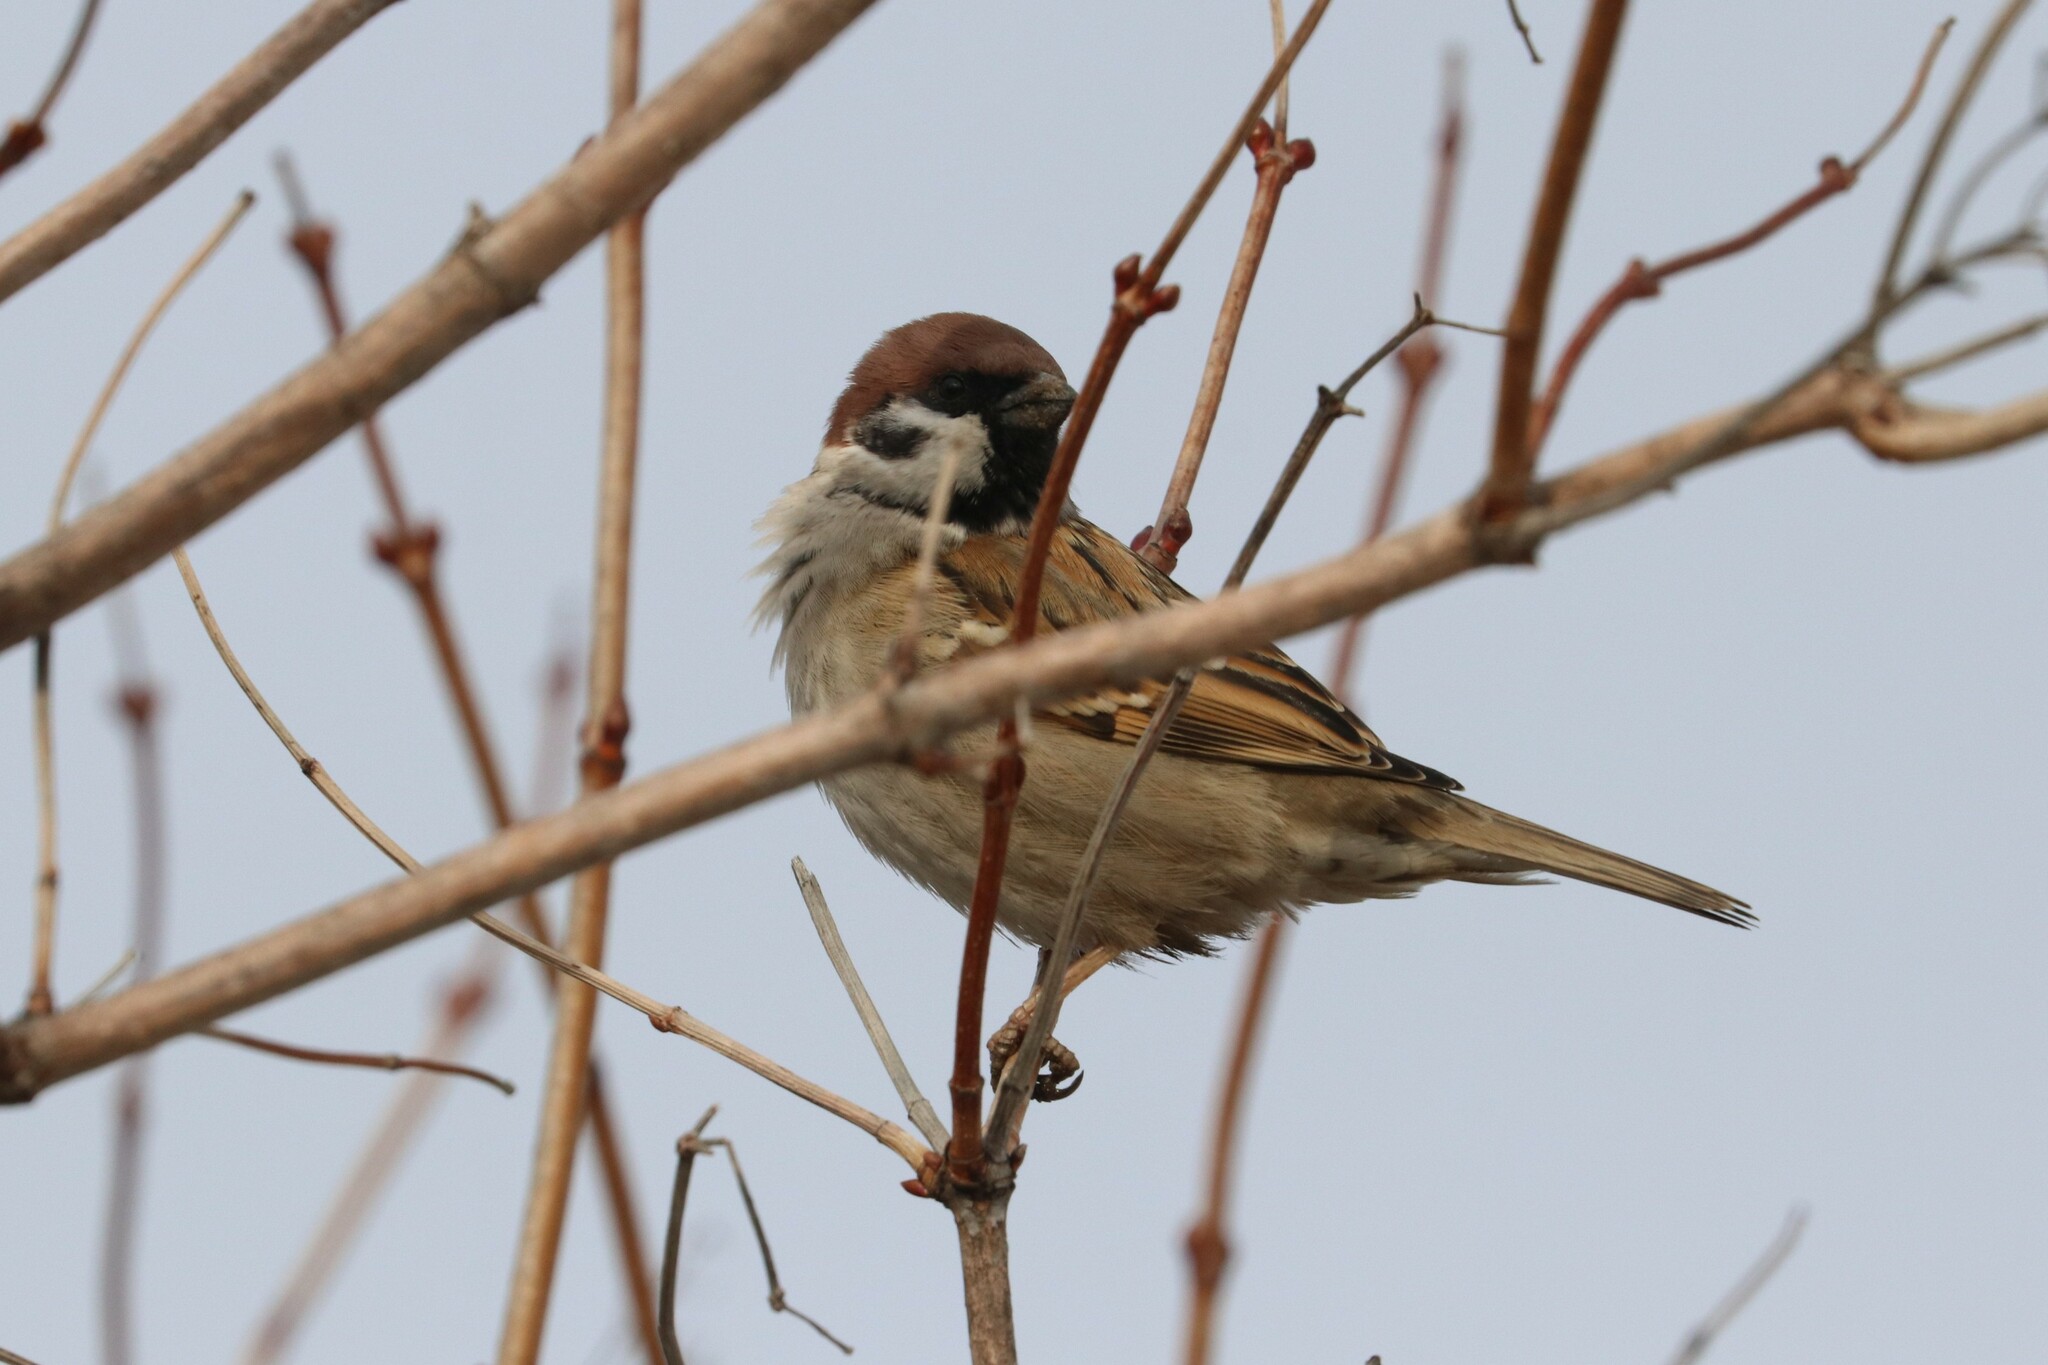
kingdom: Animalia
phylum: Chordata
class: Aves
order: Passeriformes
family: Passeridae
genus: Passer
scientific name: Passer montanus
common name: Eurasian tree sparrow
